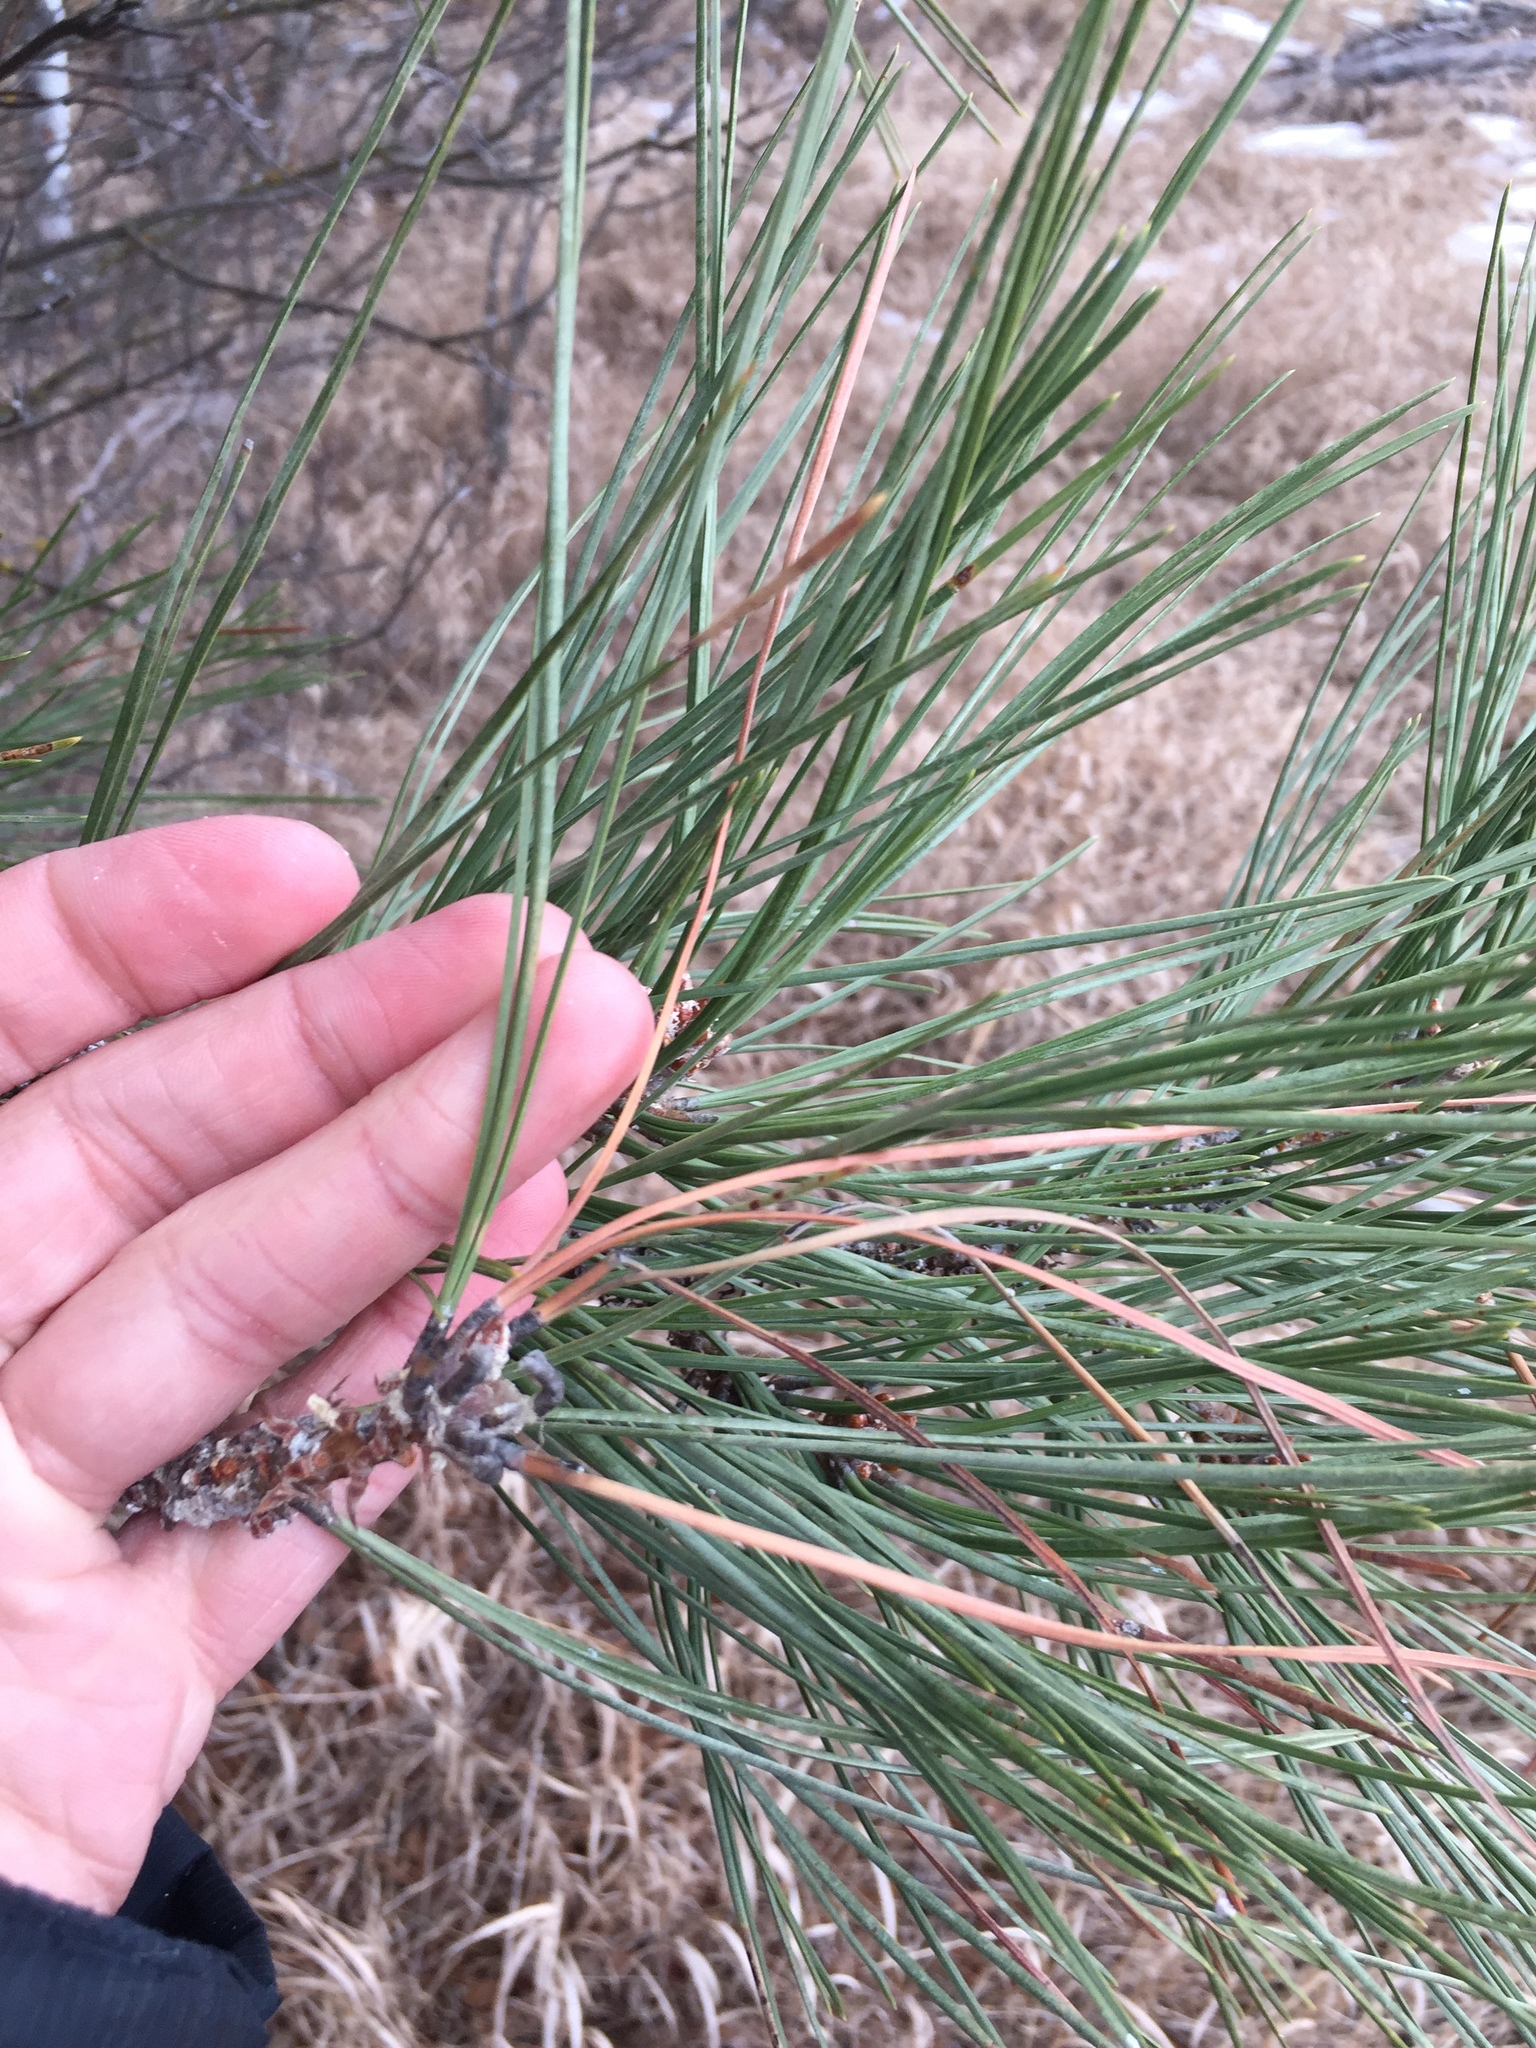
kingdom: Plantae
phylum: Tracheophyta
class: Pinopsida
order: Pinales
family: Pinaceae
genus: Pinus
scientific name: Pinus ponderosa
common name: Western yellow-pine
